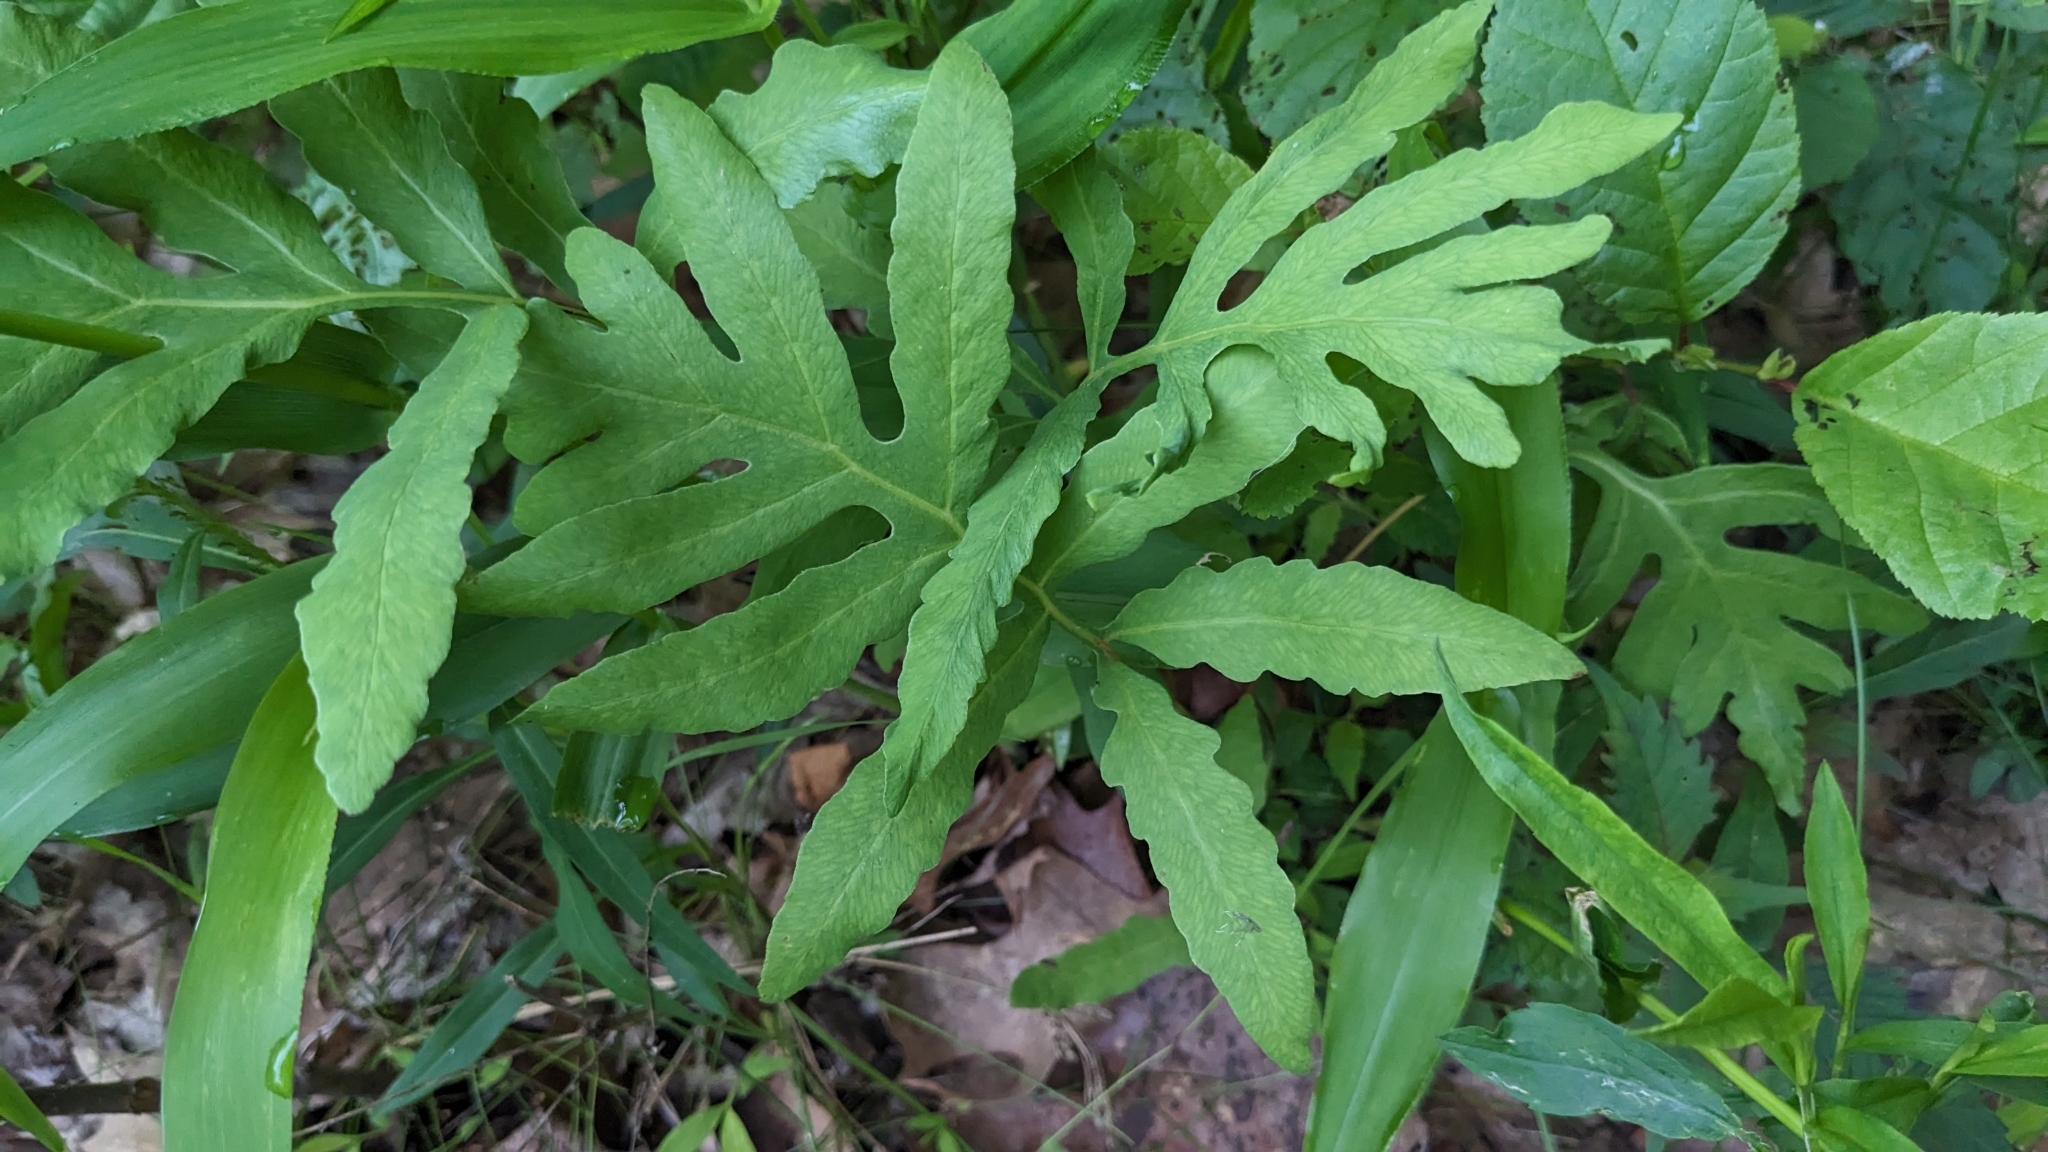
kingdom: Plantae
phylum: Tracheophyta
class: Polypodiopsida
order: Polypodiales
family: Onocleaceae
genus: Onoclea
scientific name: Onoclea sensibilis
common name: Sensitive fern
